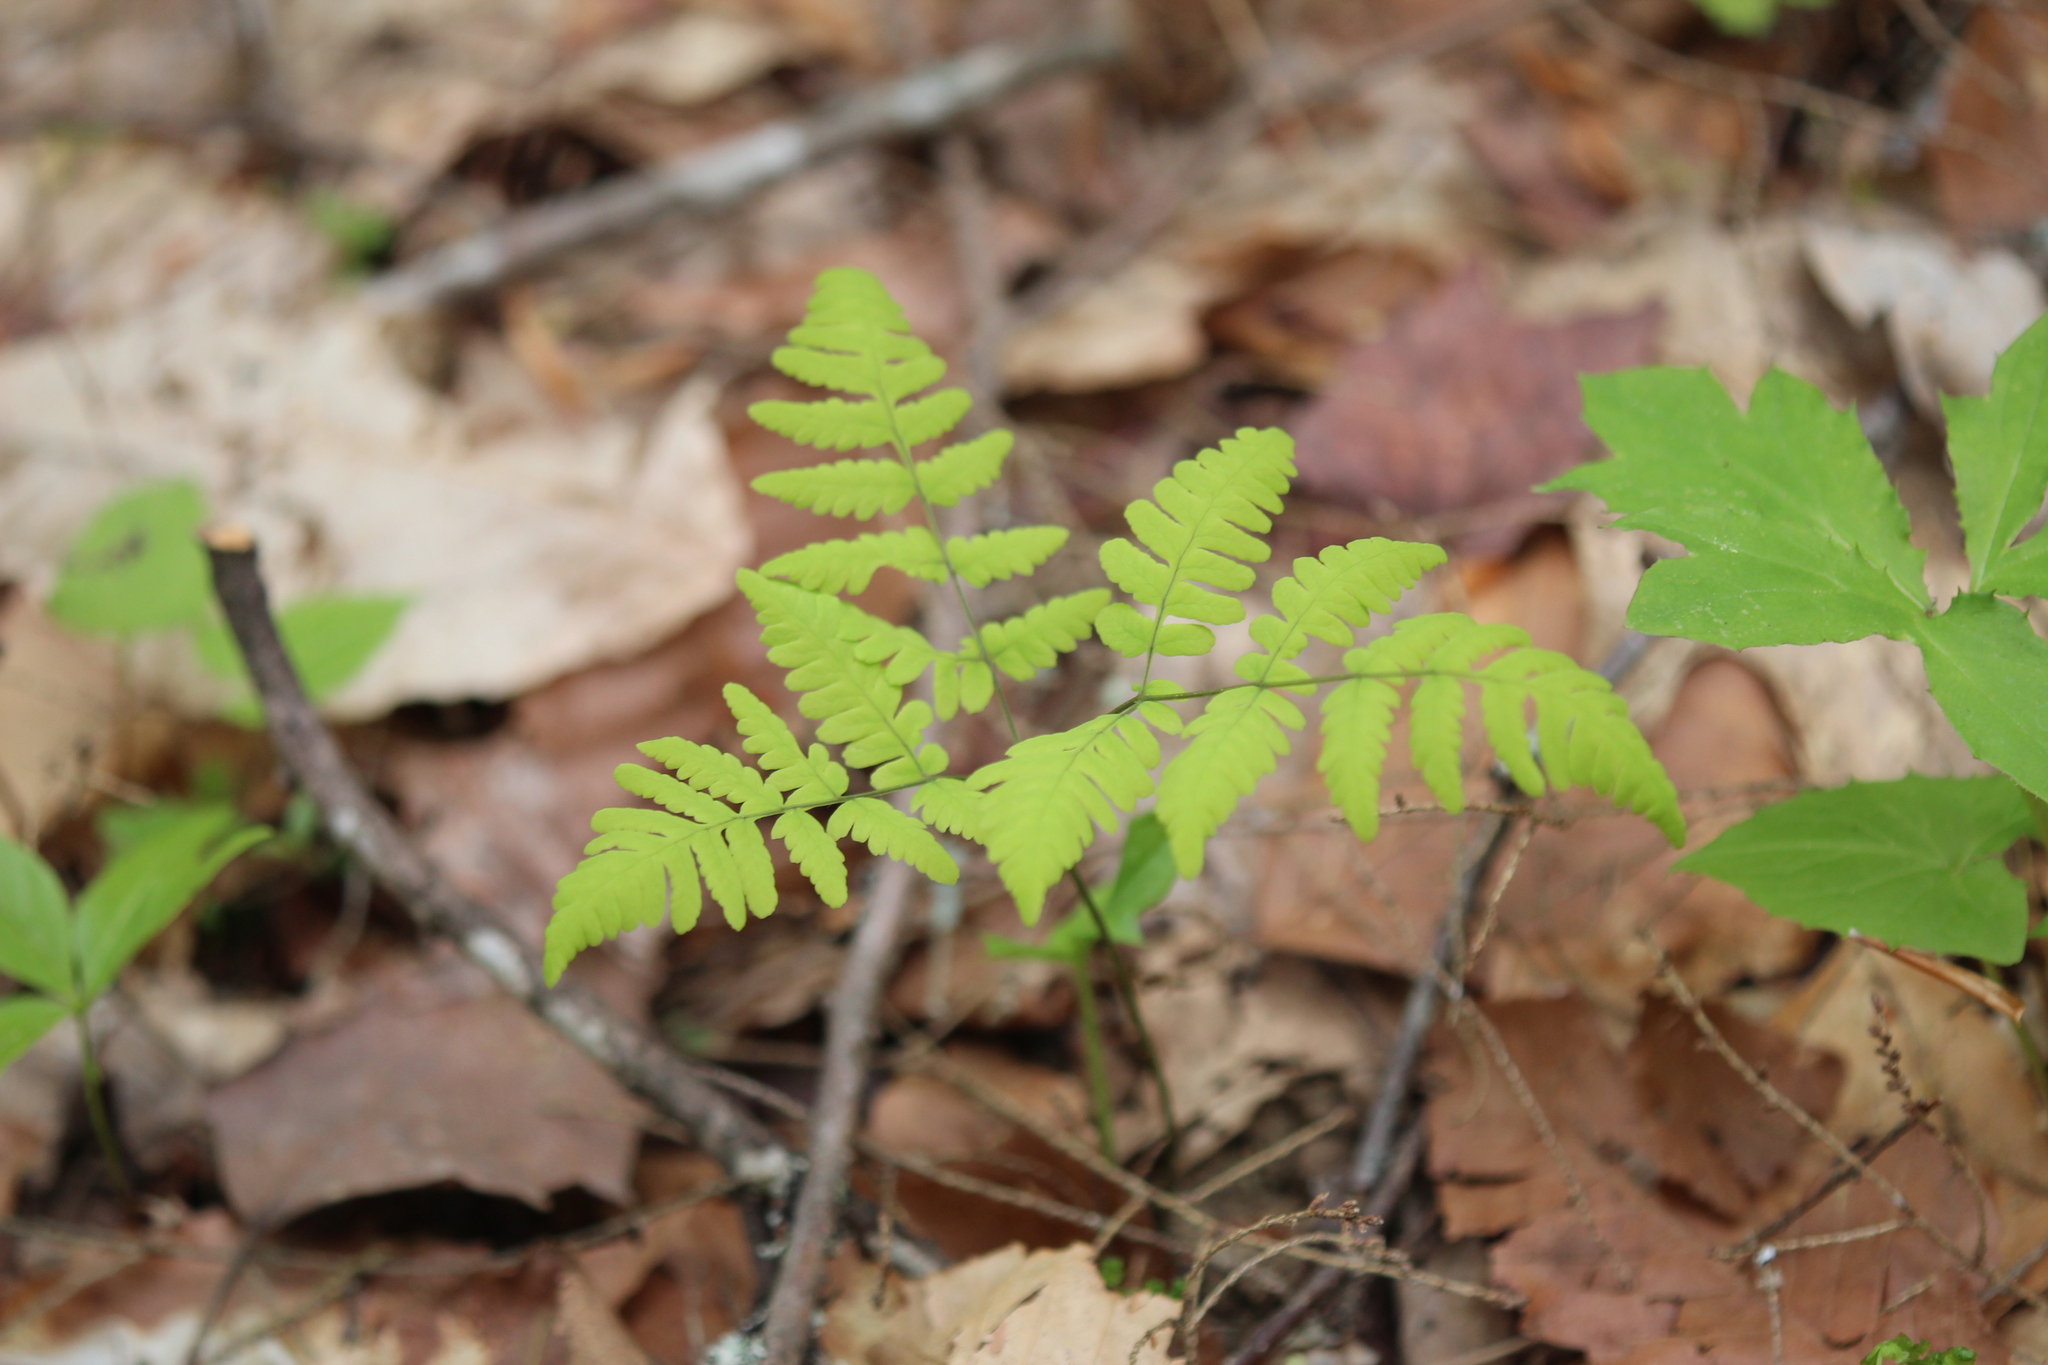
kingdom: Plantae
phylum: Tracheophyta
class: Polypodiopsida
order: Polypodiales
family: Cystopteridaceae
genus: Gymnocarpium
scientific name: Gymnocarpium dryopteris
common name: Oak fern
